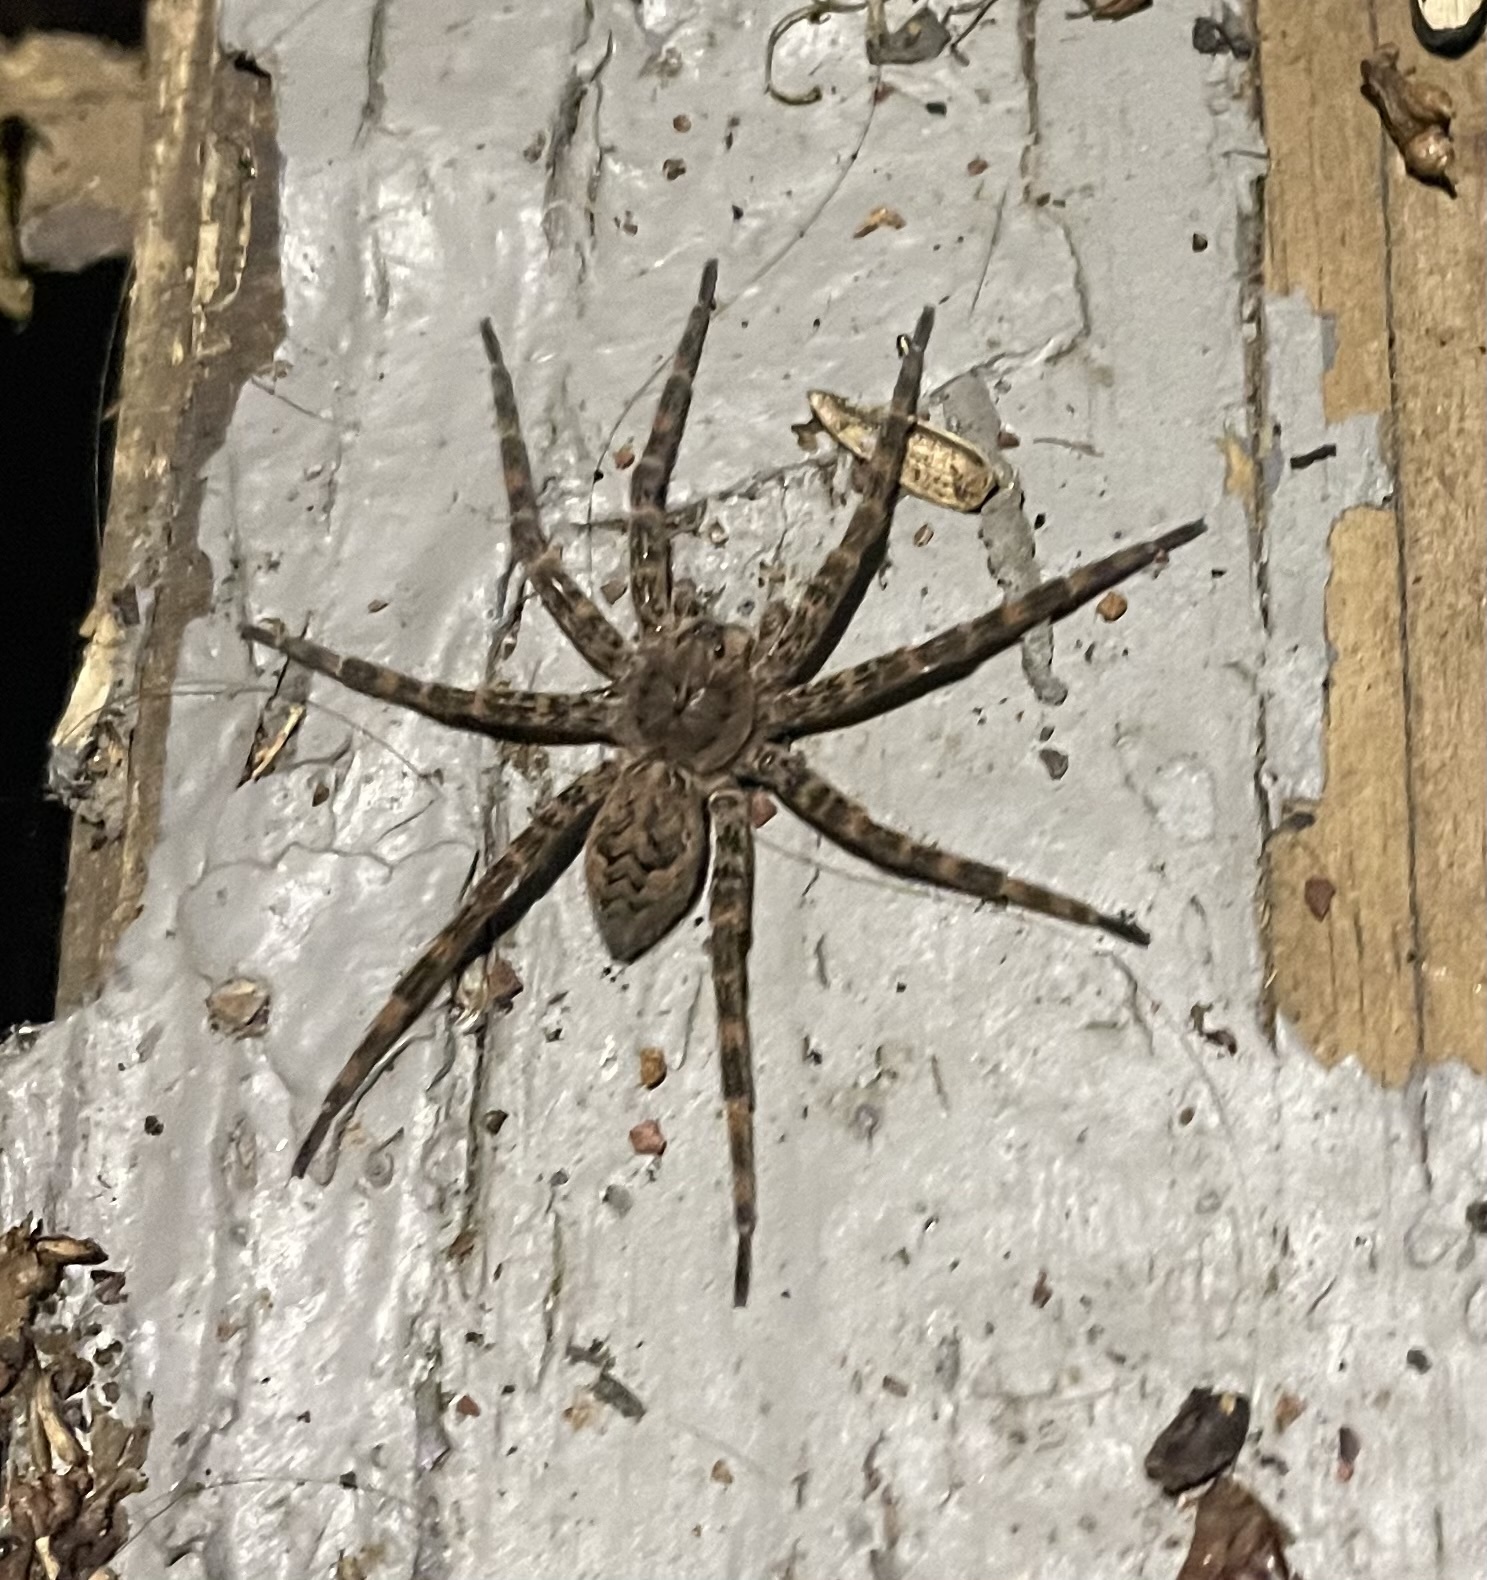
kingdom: Animalia
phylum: Arthropoda
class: Arachnida
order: Araneae
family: Pisauridae
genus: Dolomedes
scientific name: Dolomedes tenebrosus
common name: Dark fishing spider
